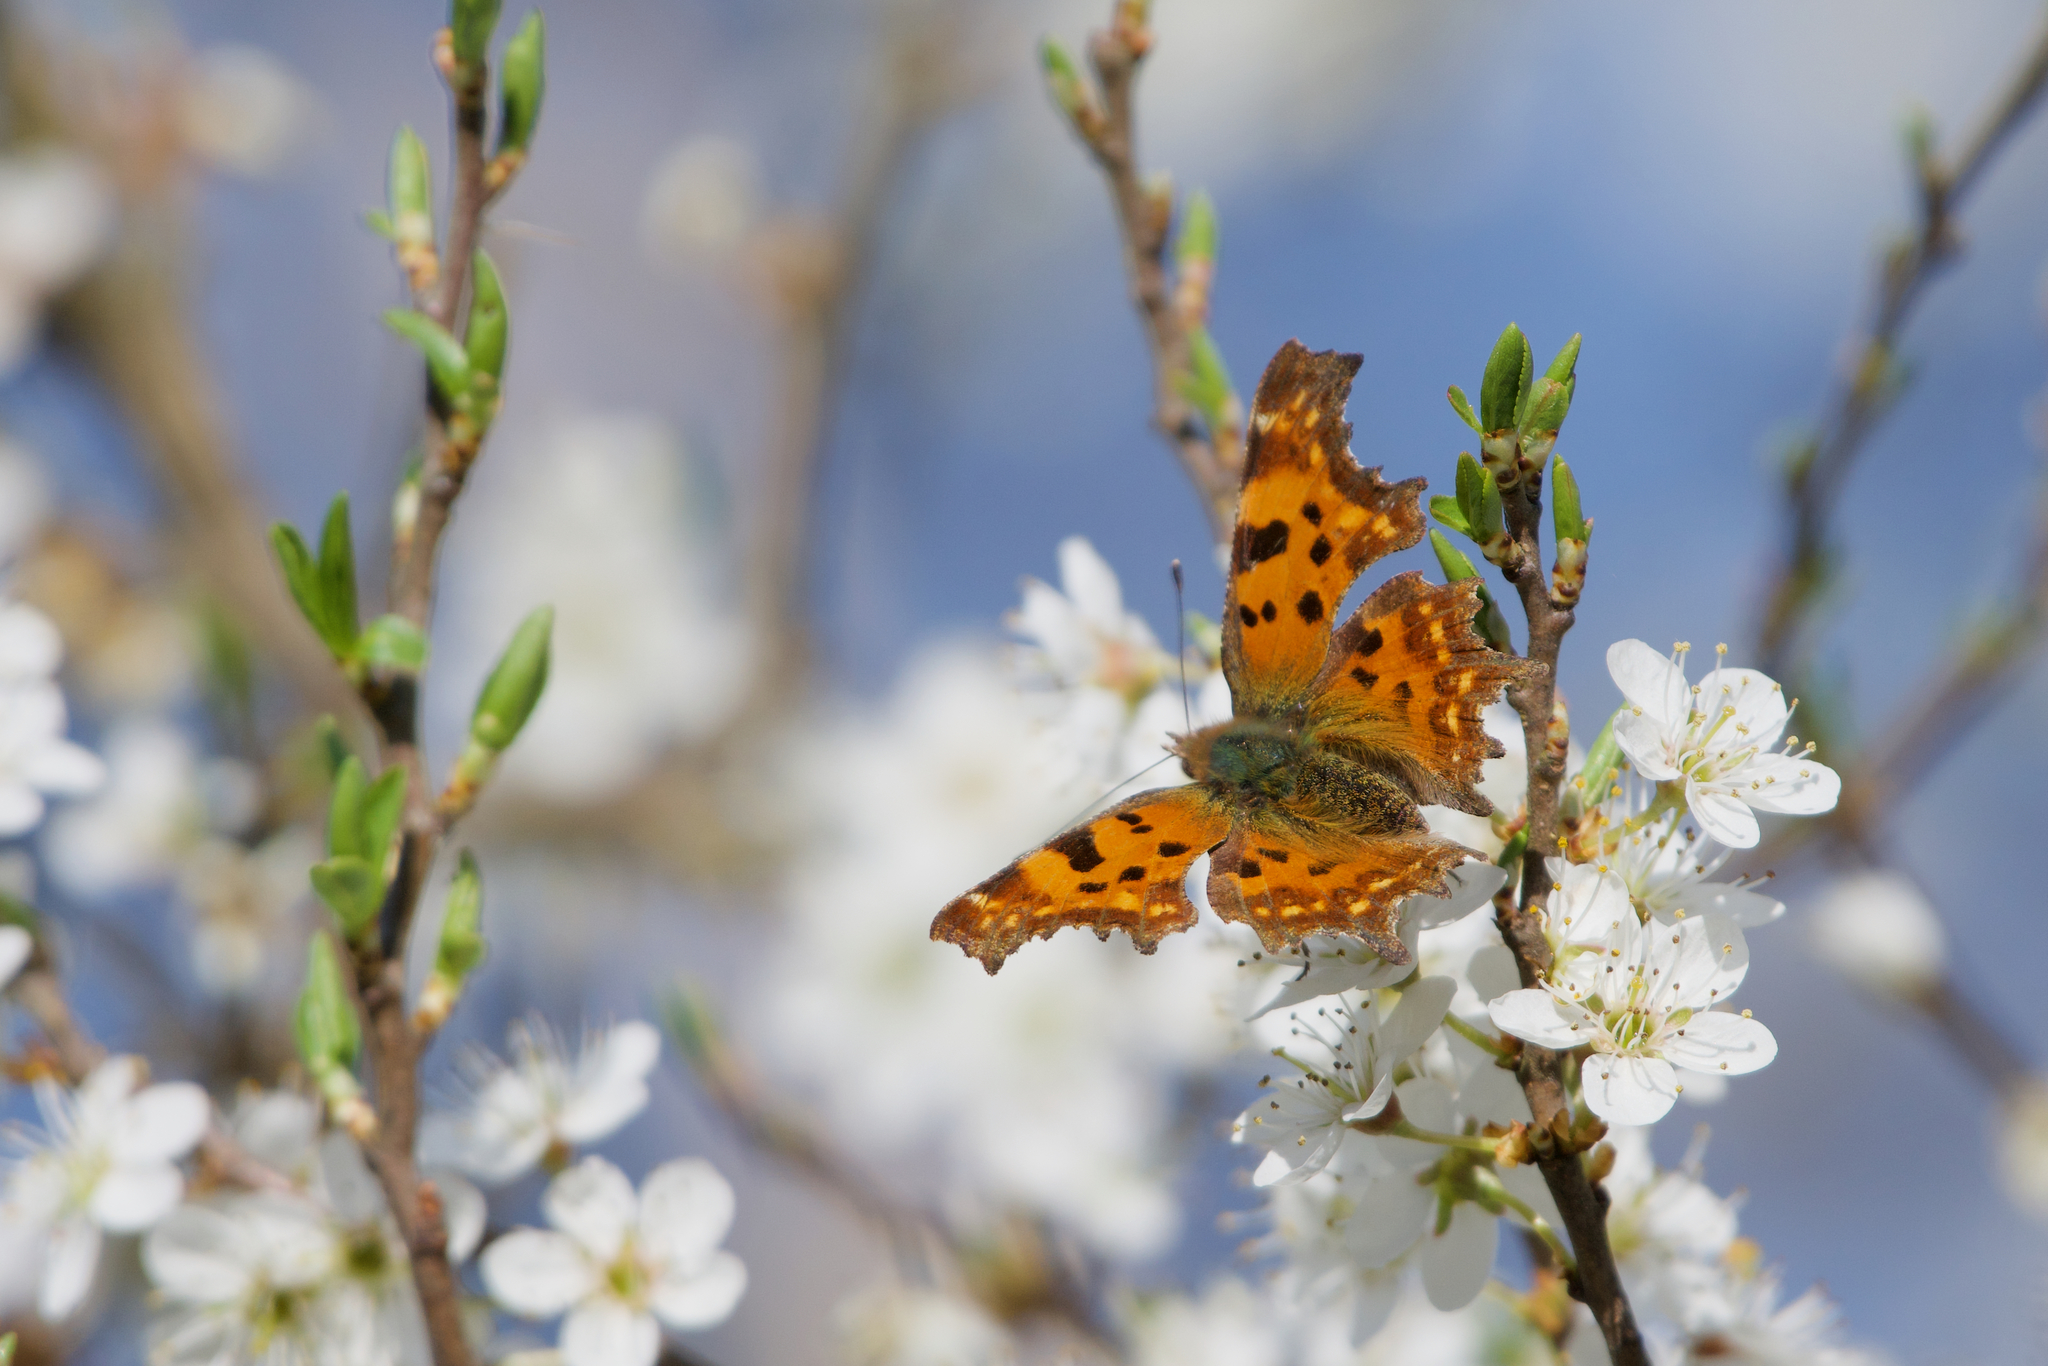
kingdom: Animalia
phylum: Arthropoda
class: Insecta
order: Lepidoptera
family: Nymphalidae
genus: Polygonia
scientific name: Polygonia c-album
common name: Comma
